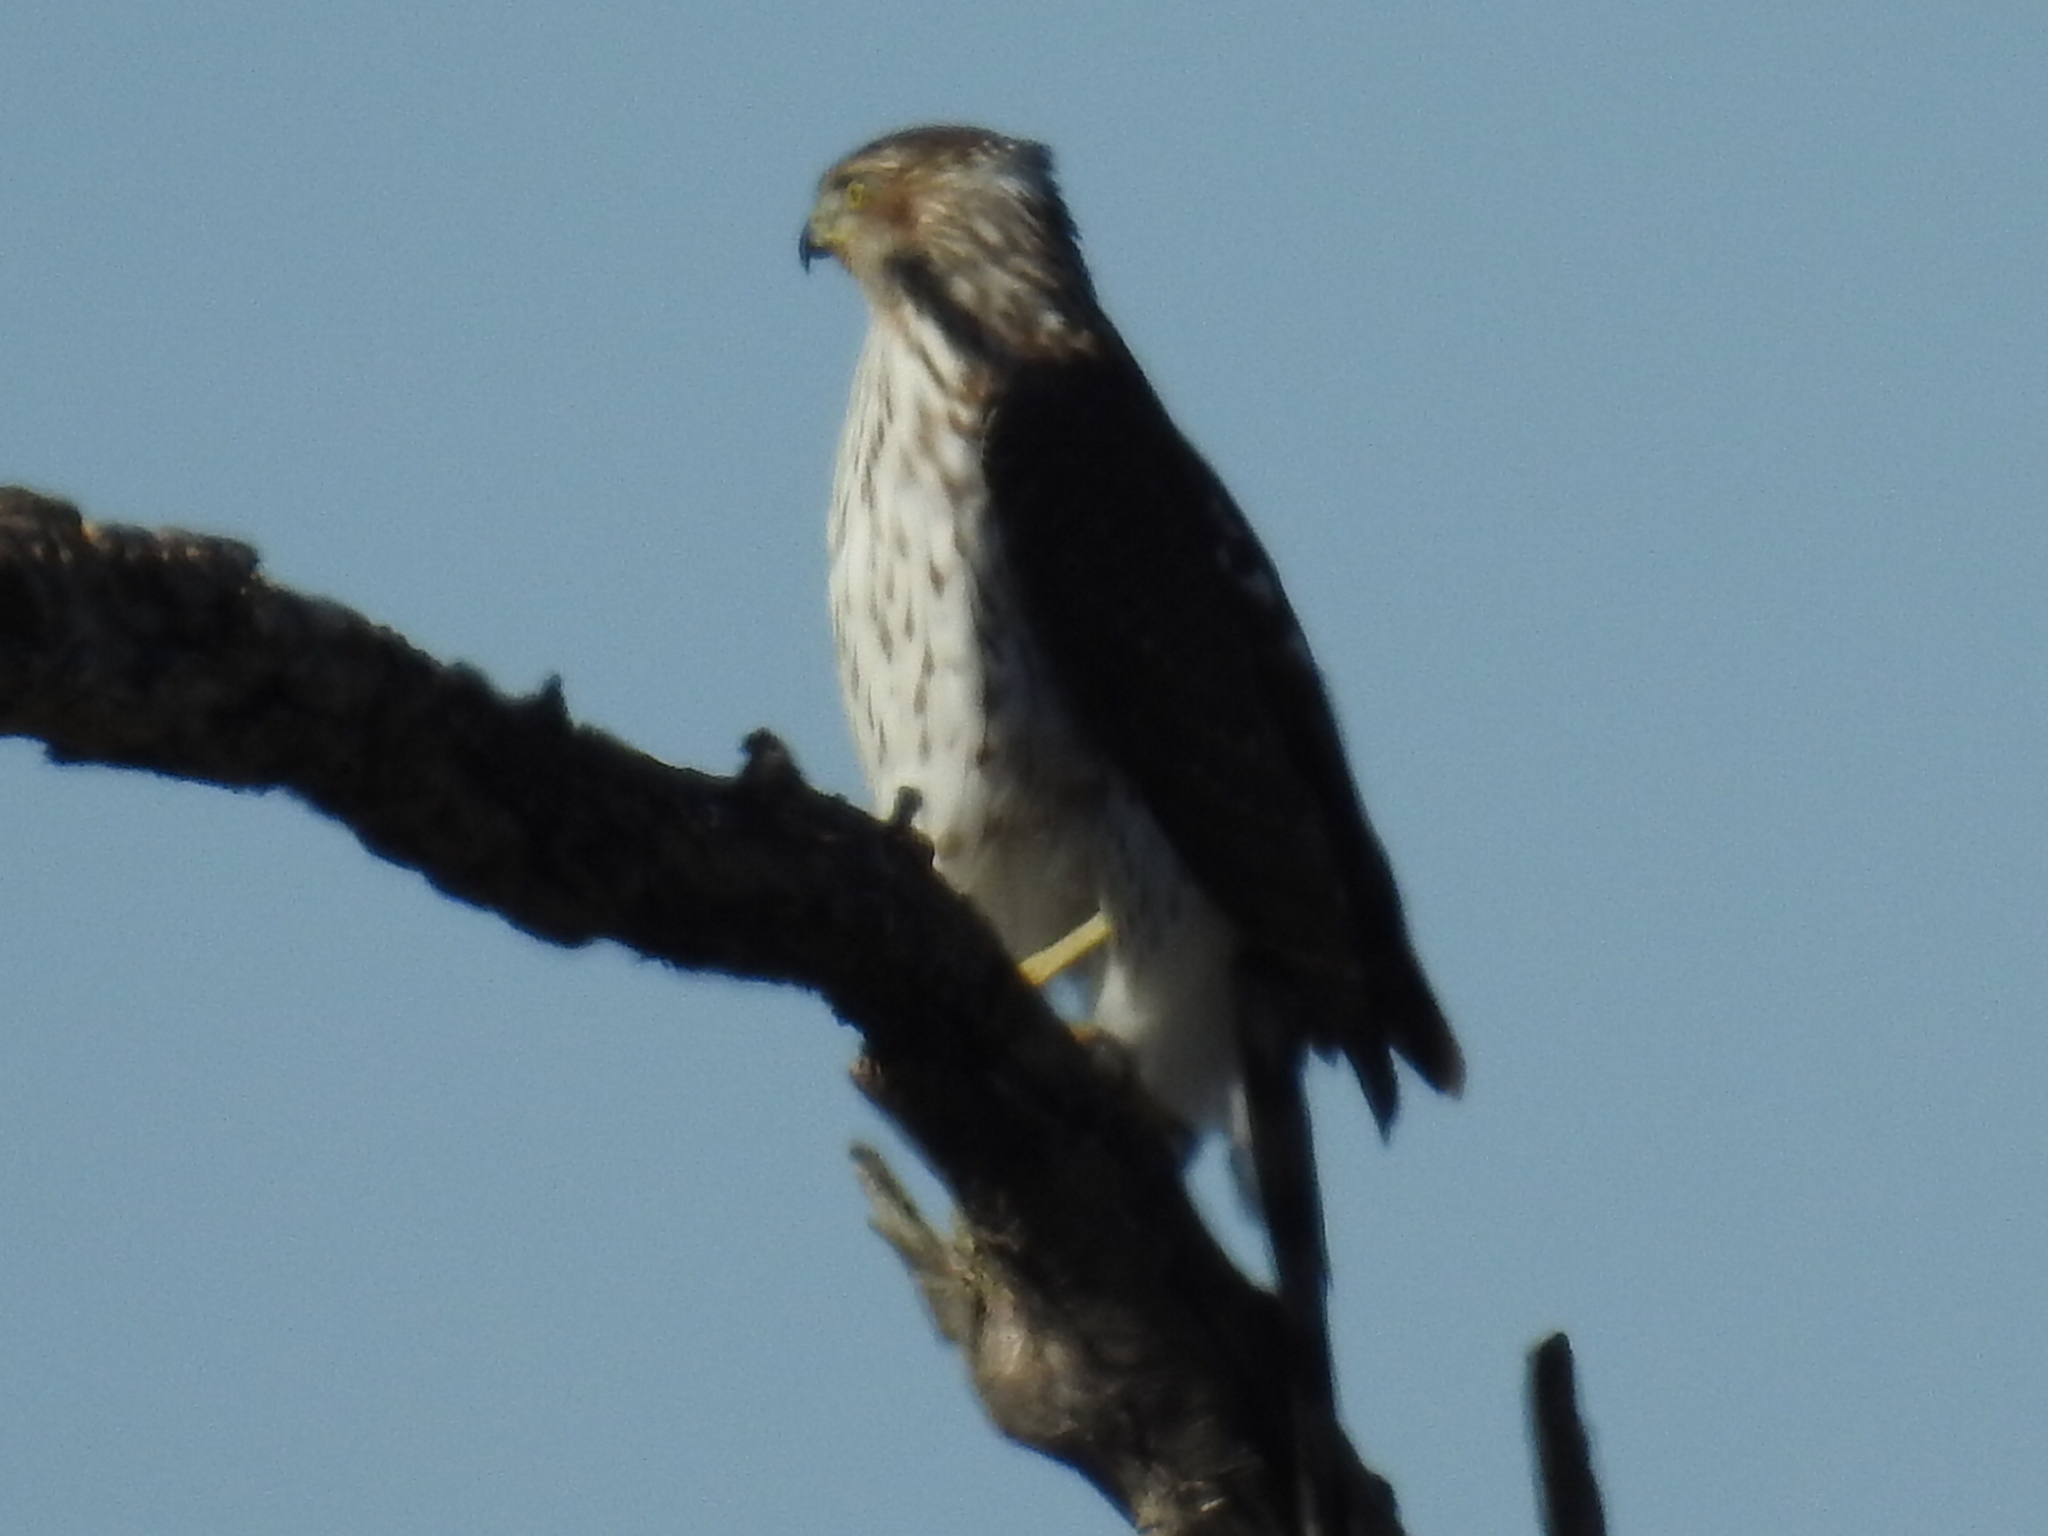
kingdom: Animalia
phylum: Chordata
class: Aves
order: Accipitriformes
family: Accipitridae
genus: Accipiter
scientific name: Accipiter cooperii
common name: Cooper's hawk
